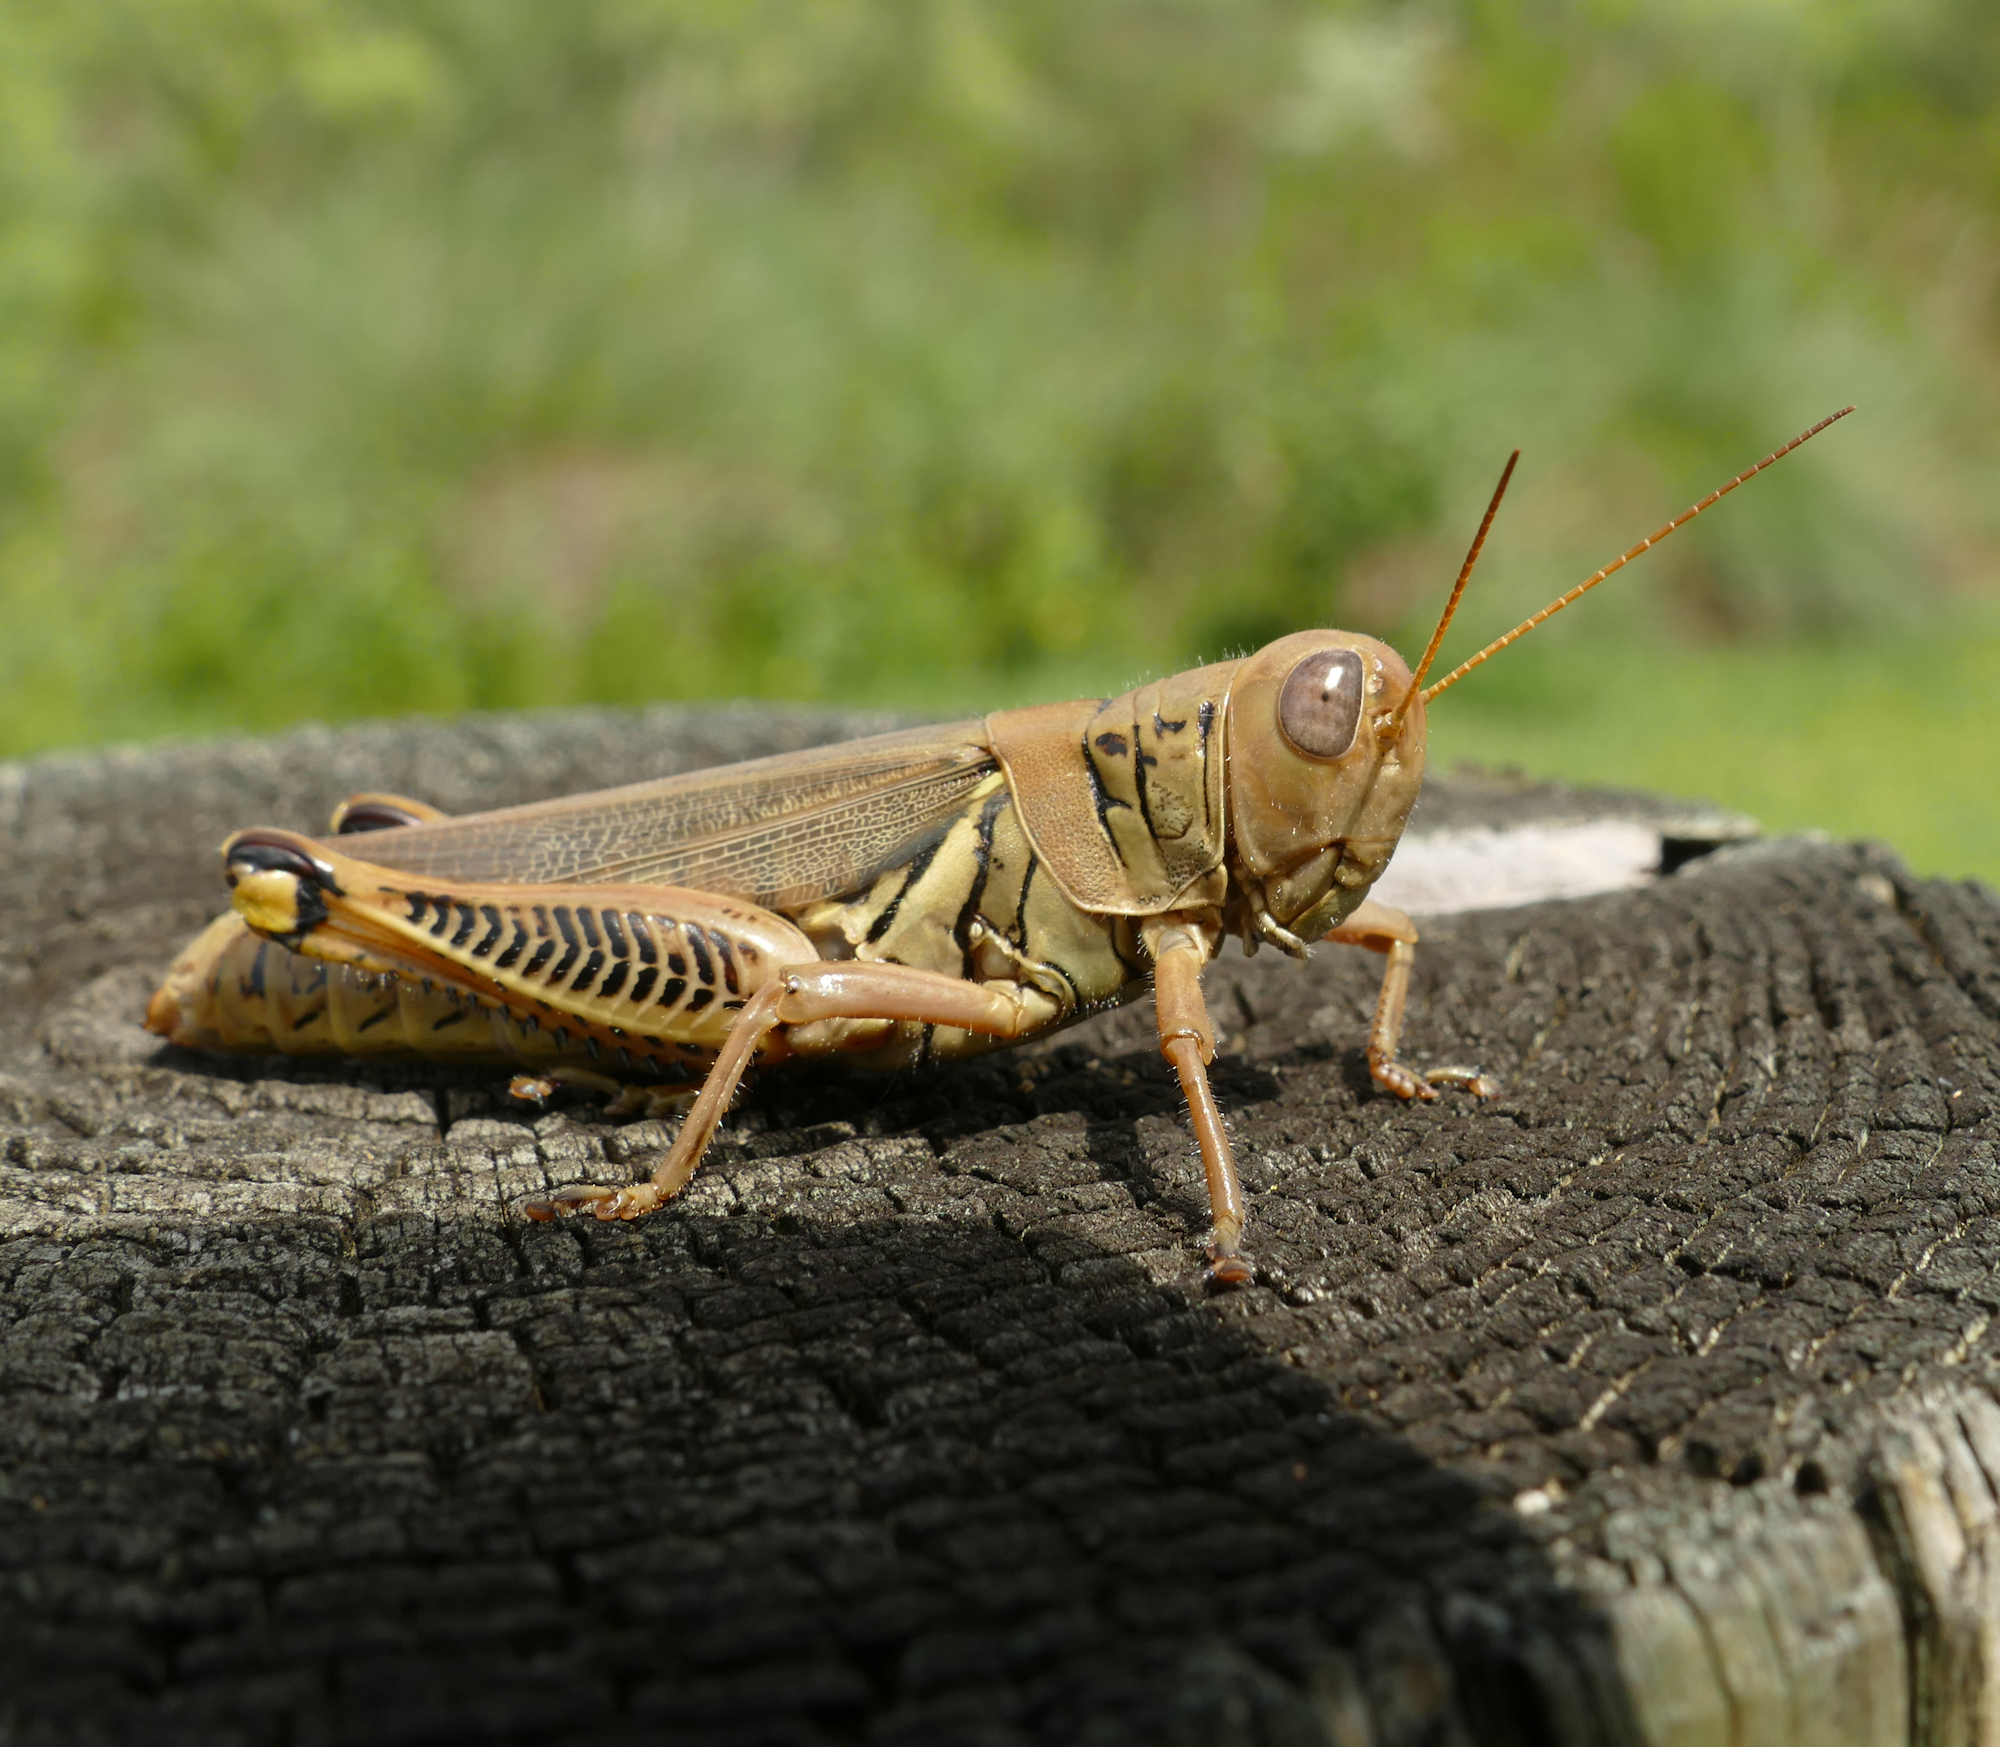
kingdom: Animalia
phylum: Arthropoda
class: Insecta
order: Orthoptera
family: Acrididae
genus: Melanoplus
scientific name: Melanoplus differentialis
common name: Differential grasshopper
